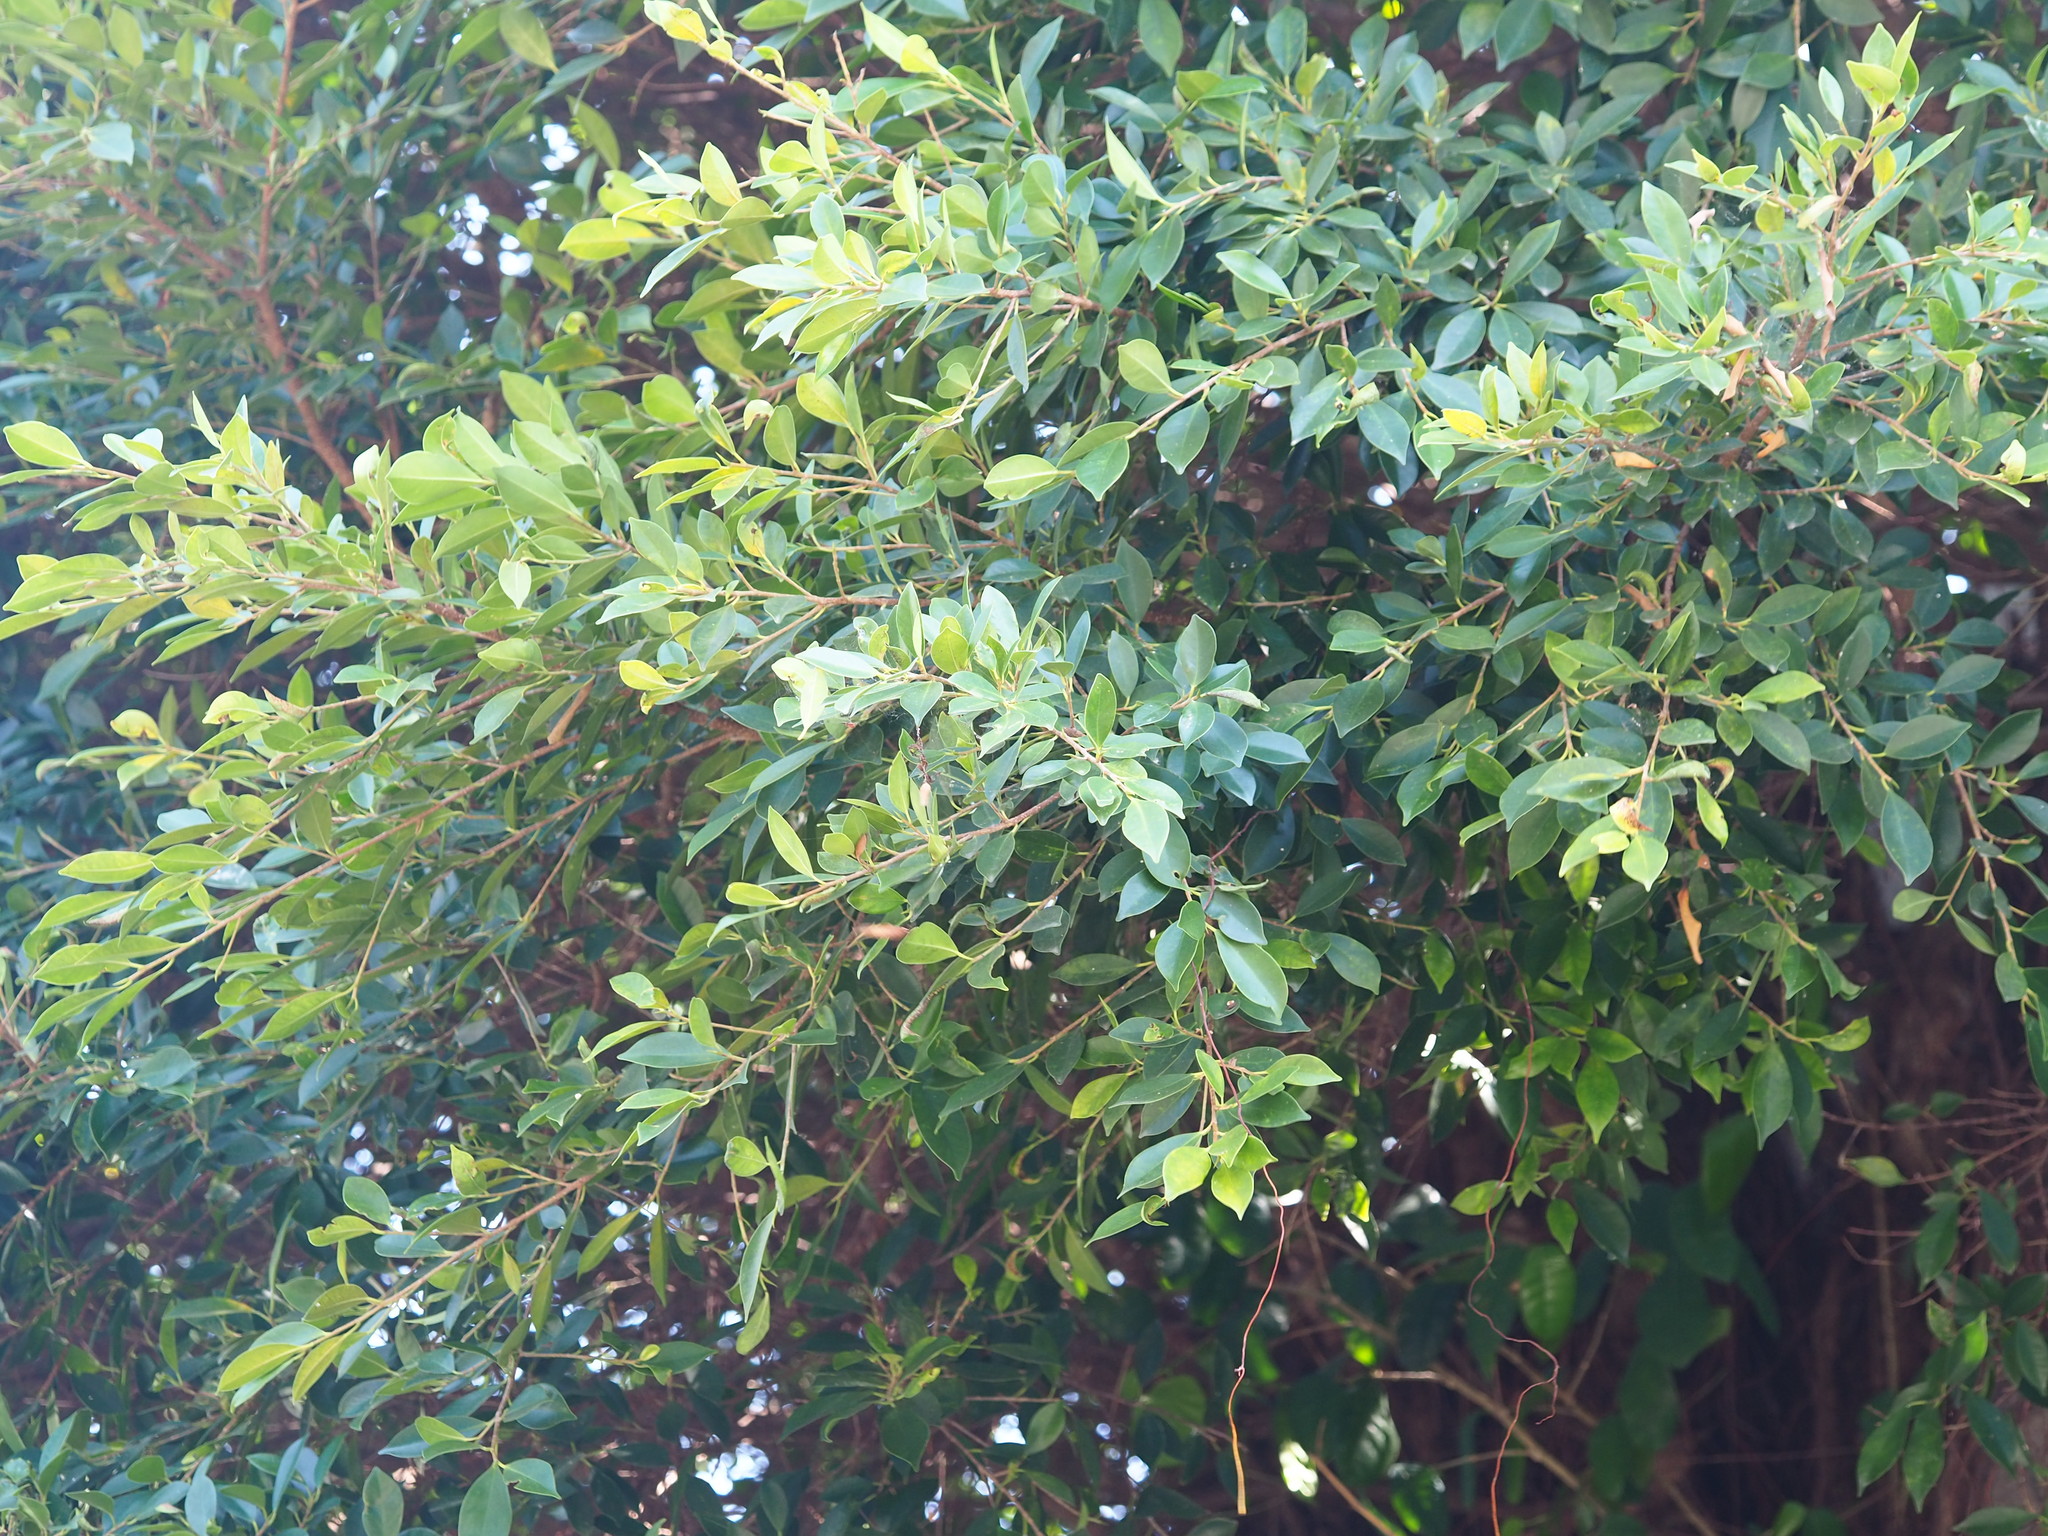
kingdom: Plantae
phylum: Tracheophyta
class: Magnoliopsida
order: Rosales
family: Moraceae
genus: Ficus
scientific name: Ficus microcarpa
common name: Chinese banyan
